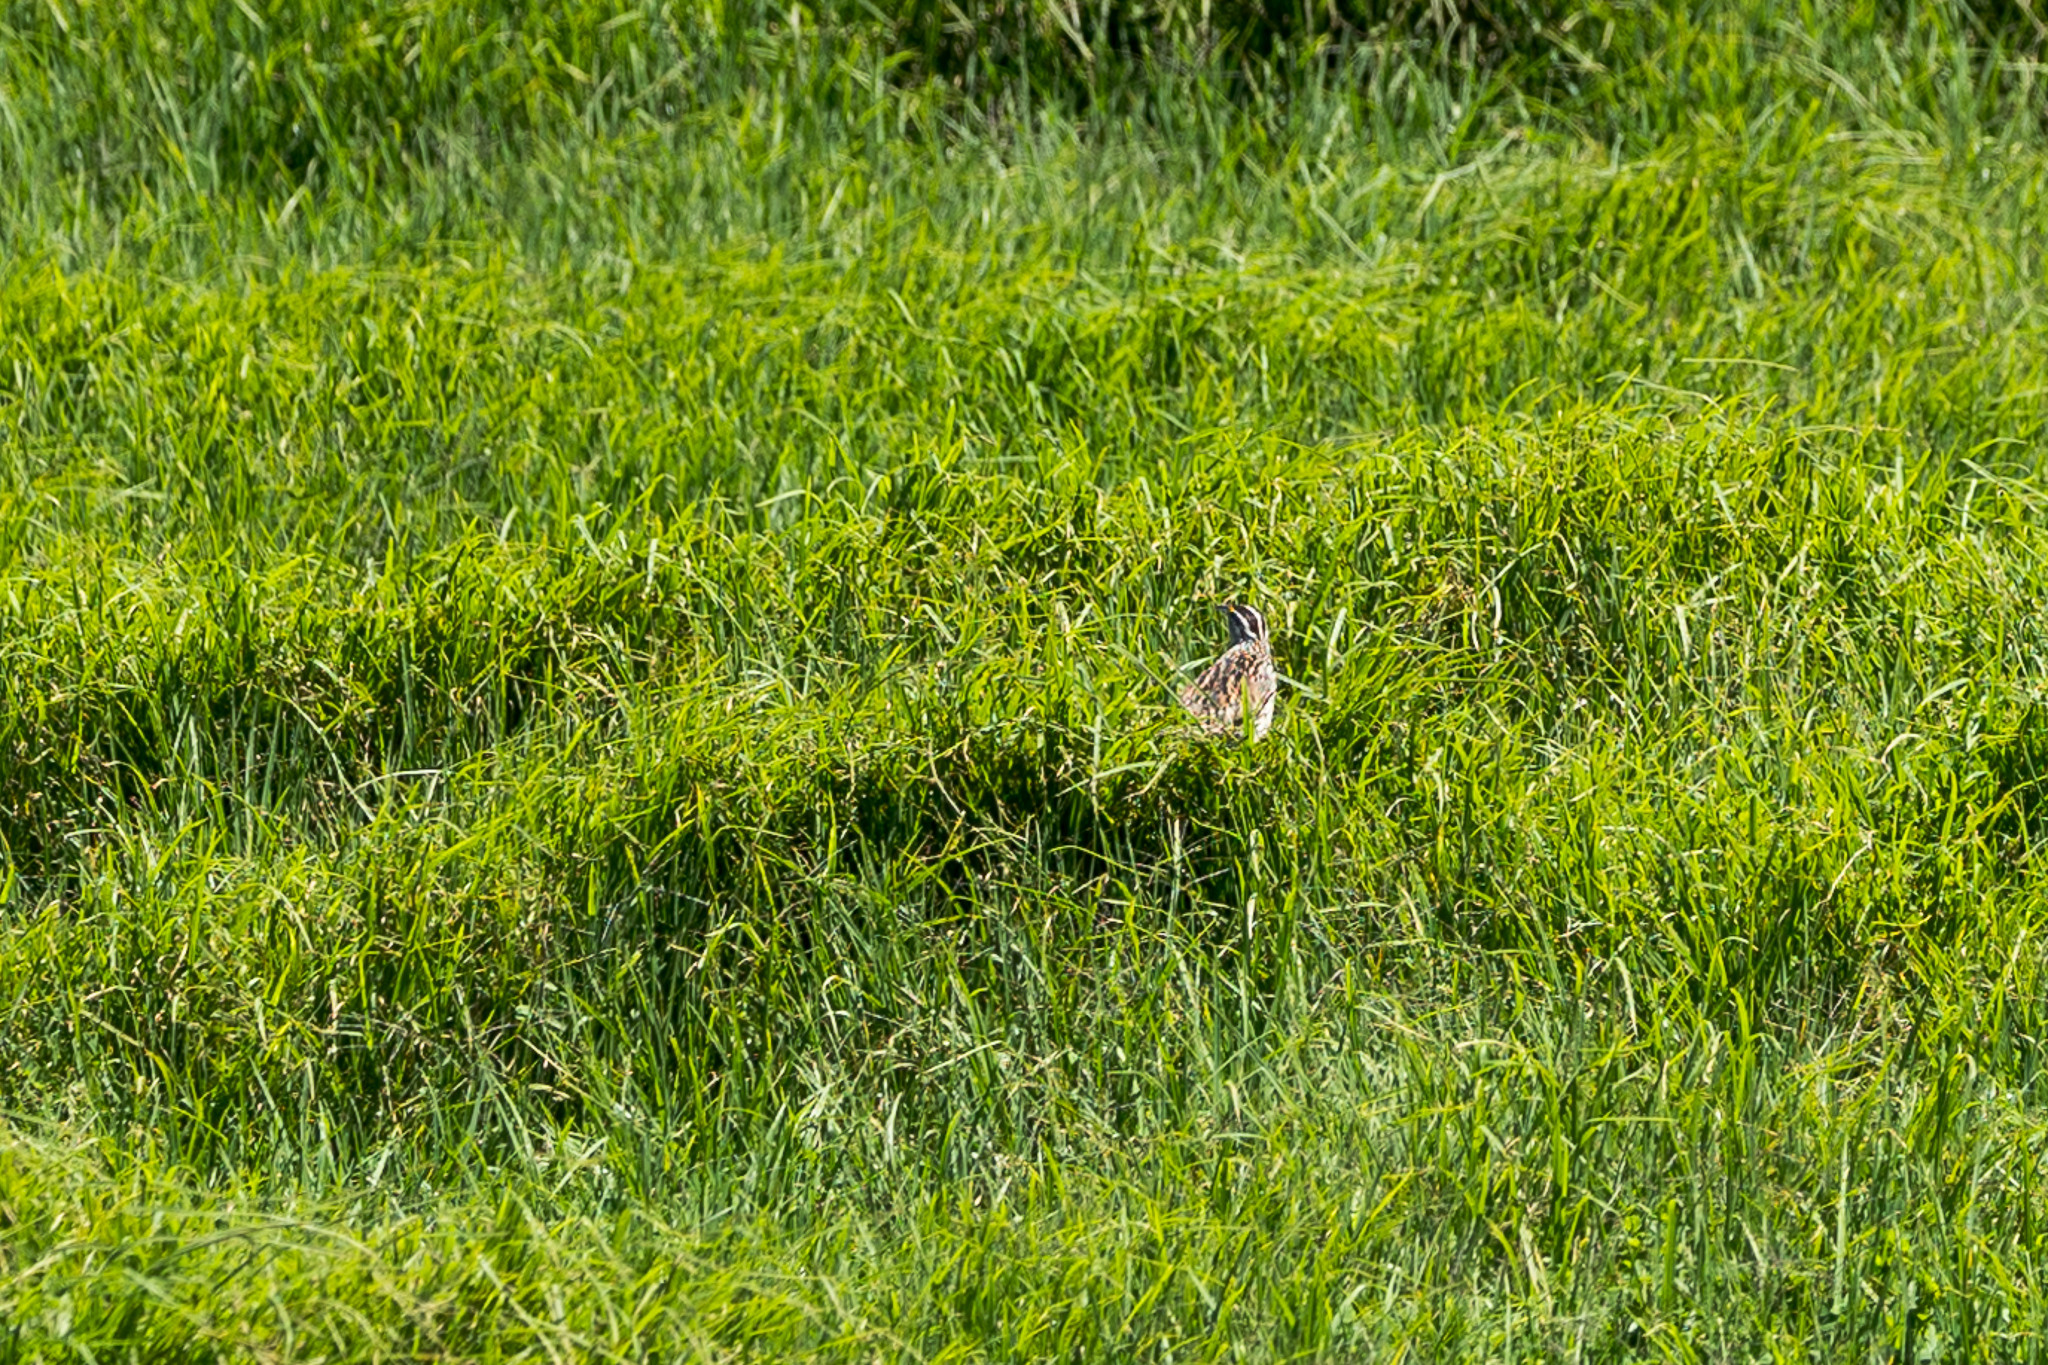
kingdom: Animalia
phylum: Chordata
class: Aves
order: Passeriformes
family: Icteridae
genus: Sturnella
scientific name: Sturnella magna
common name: Eastern meadowlark
